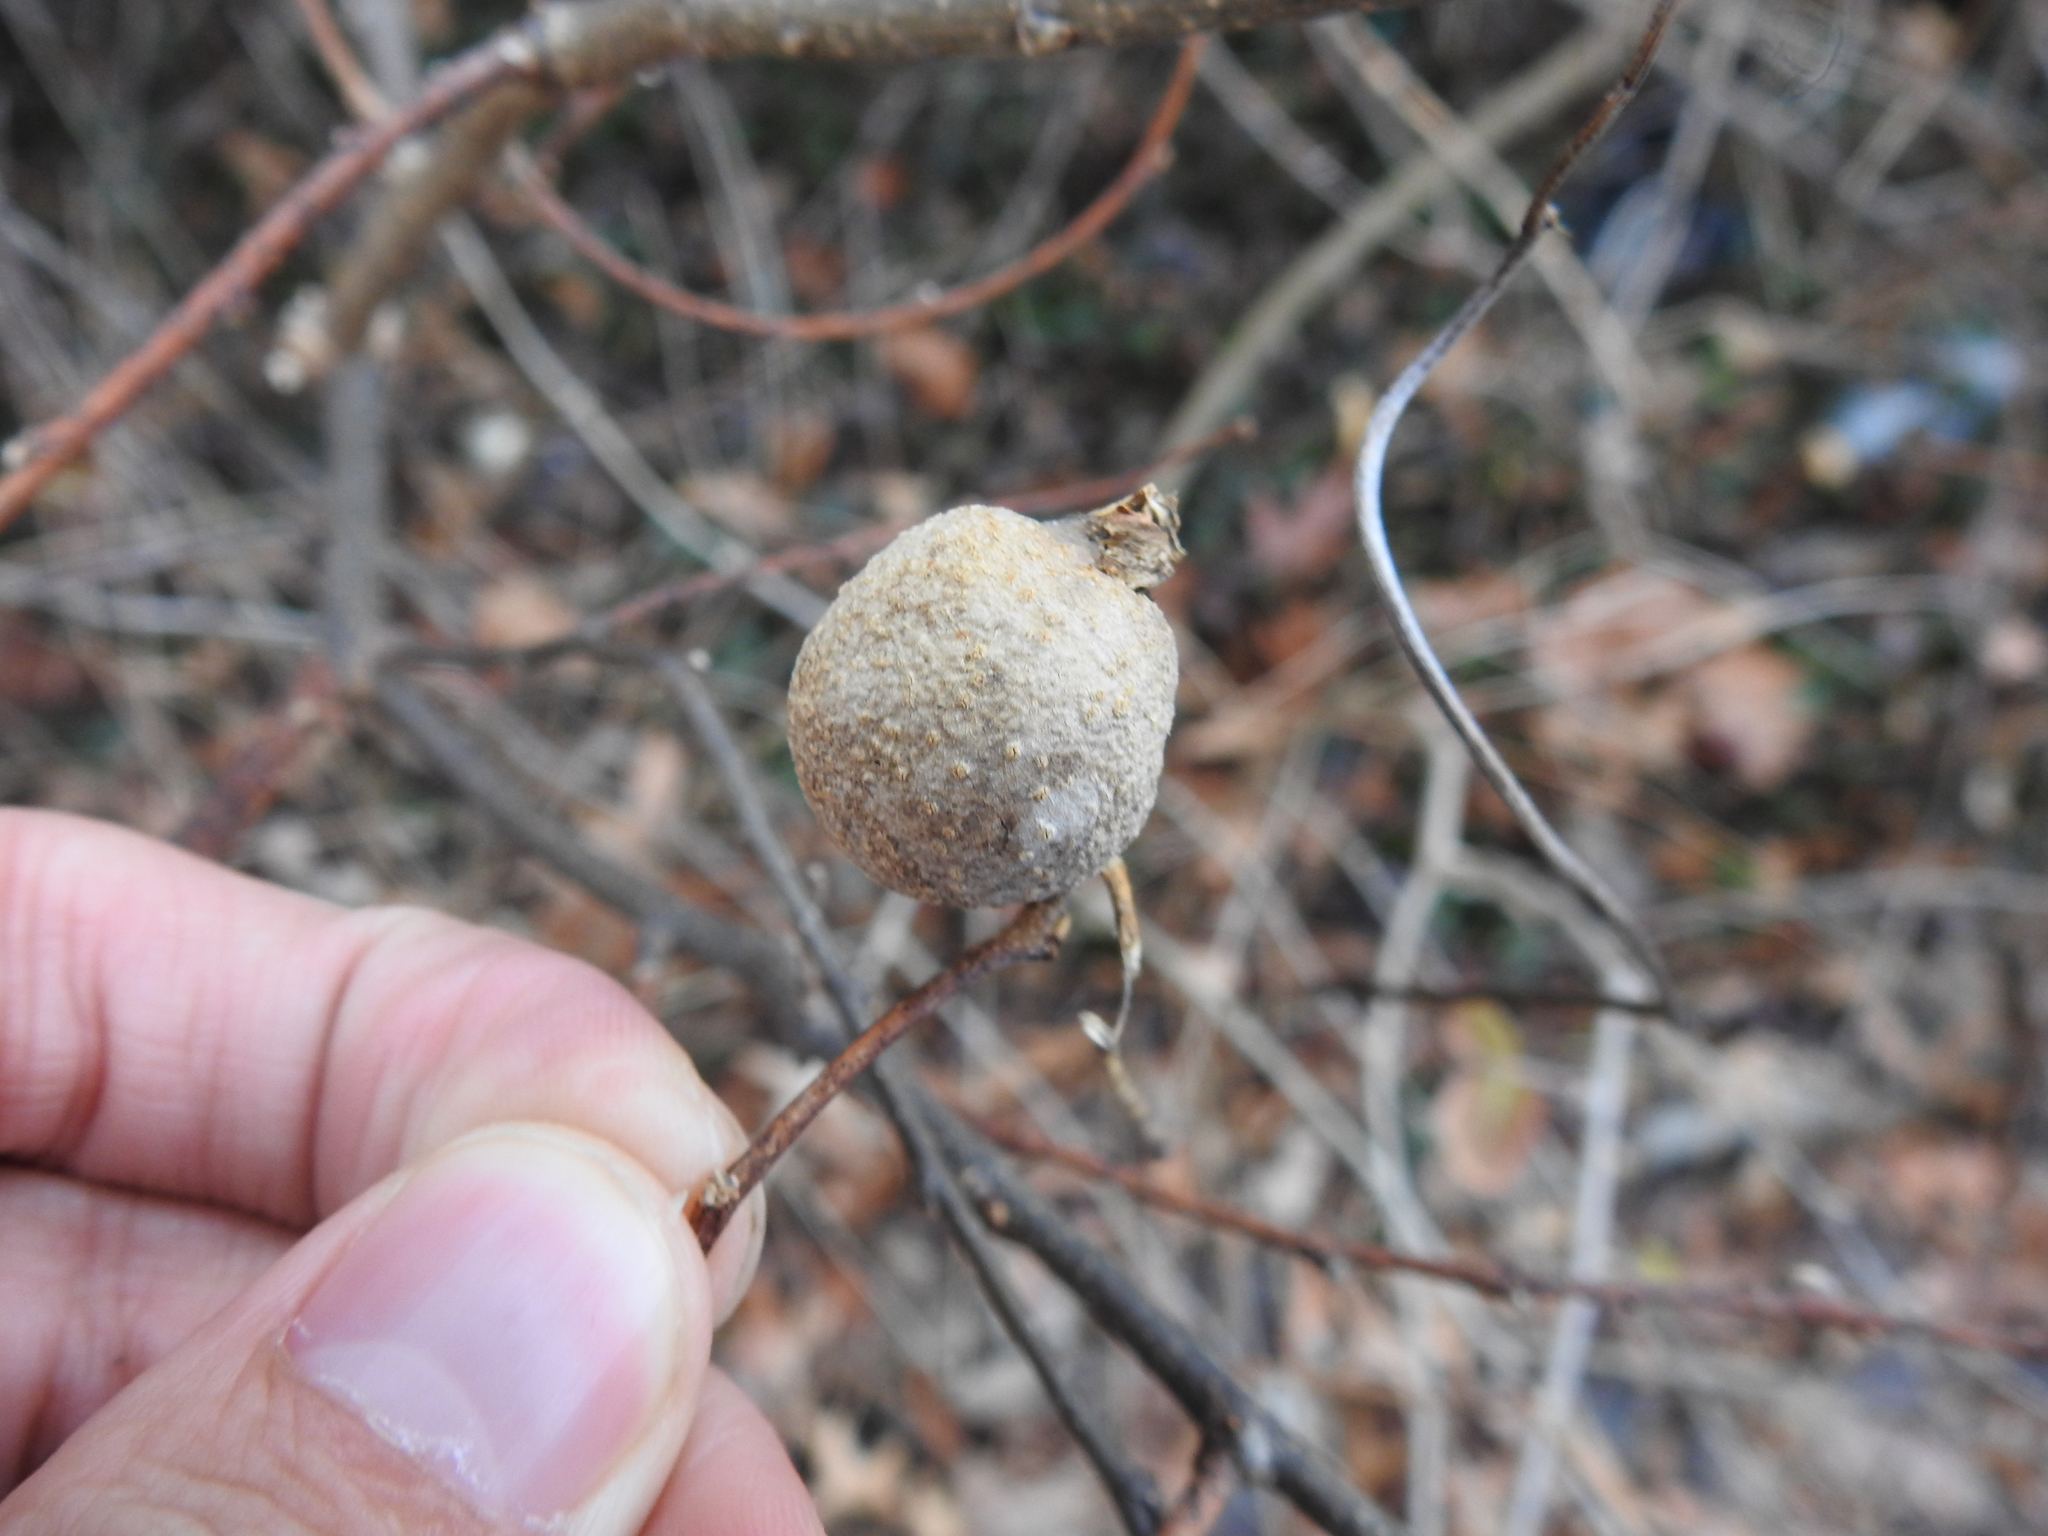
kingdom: Animalia
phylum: Arthropoda
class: Insecta
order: Hemiptera
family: Aphalaridae
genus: Pachypsylla
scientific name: Pachypsylla venusta
